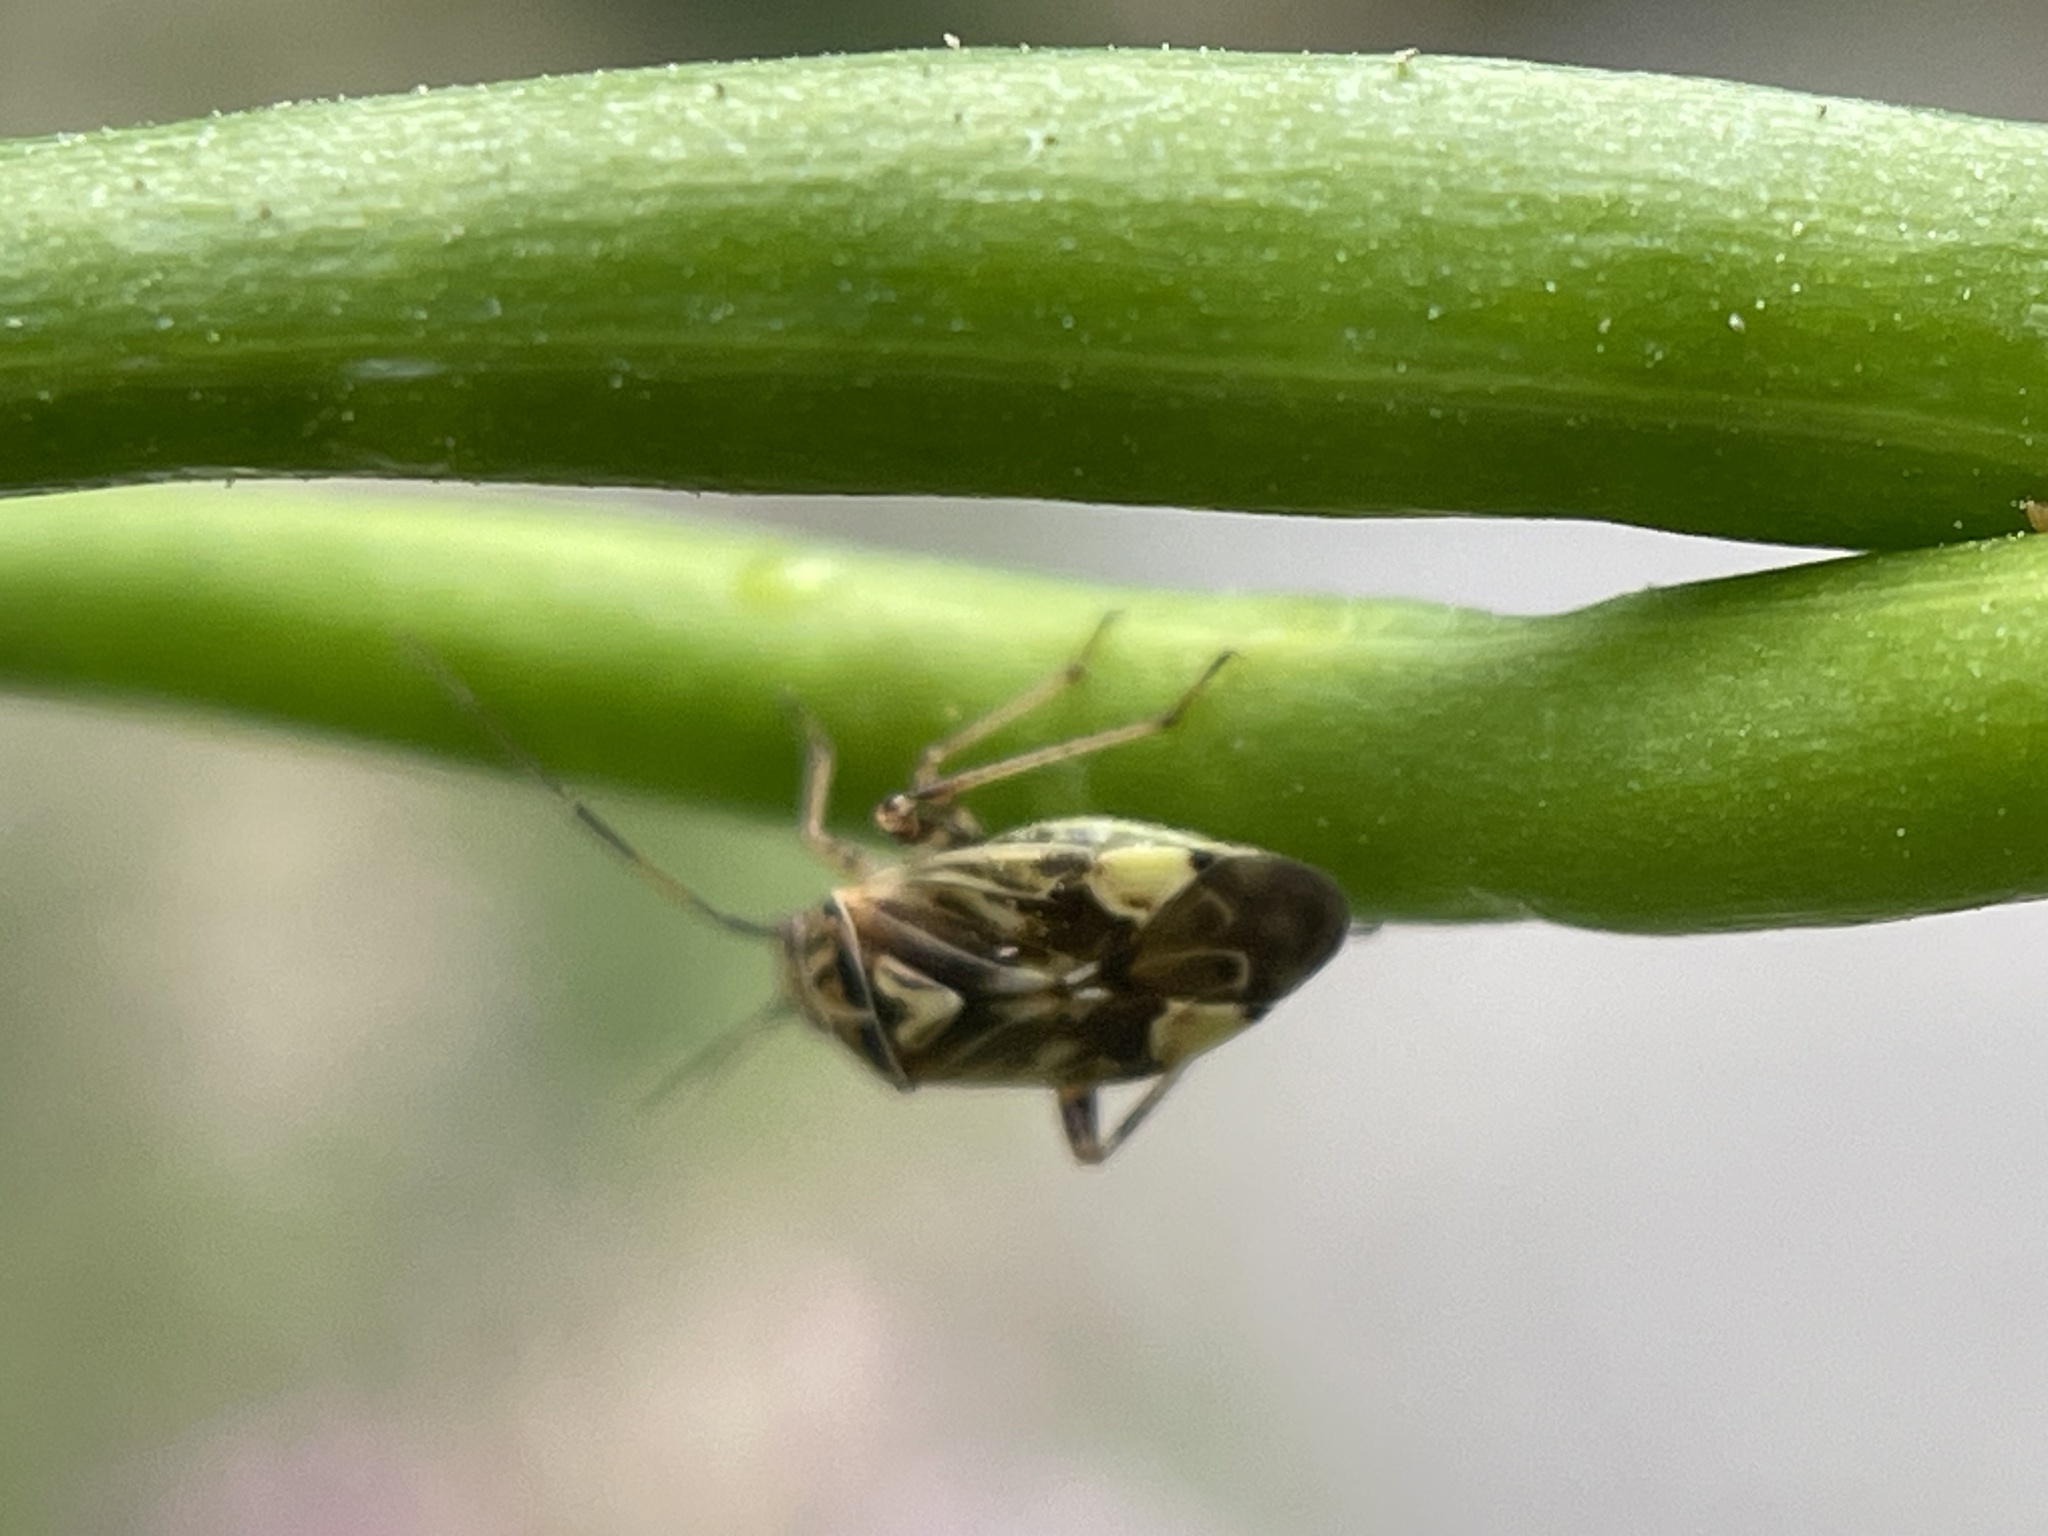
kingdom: Animalia
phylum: Arthropoda
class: Insecta
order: Hemiptera
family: Miridae
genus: Lygus
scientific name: Lygus lineolaris
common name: North american tarnished plant bug
